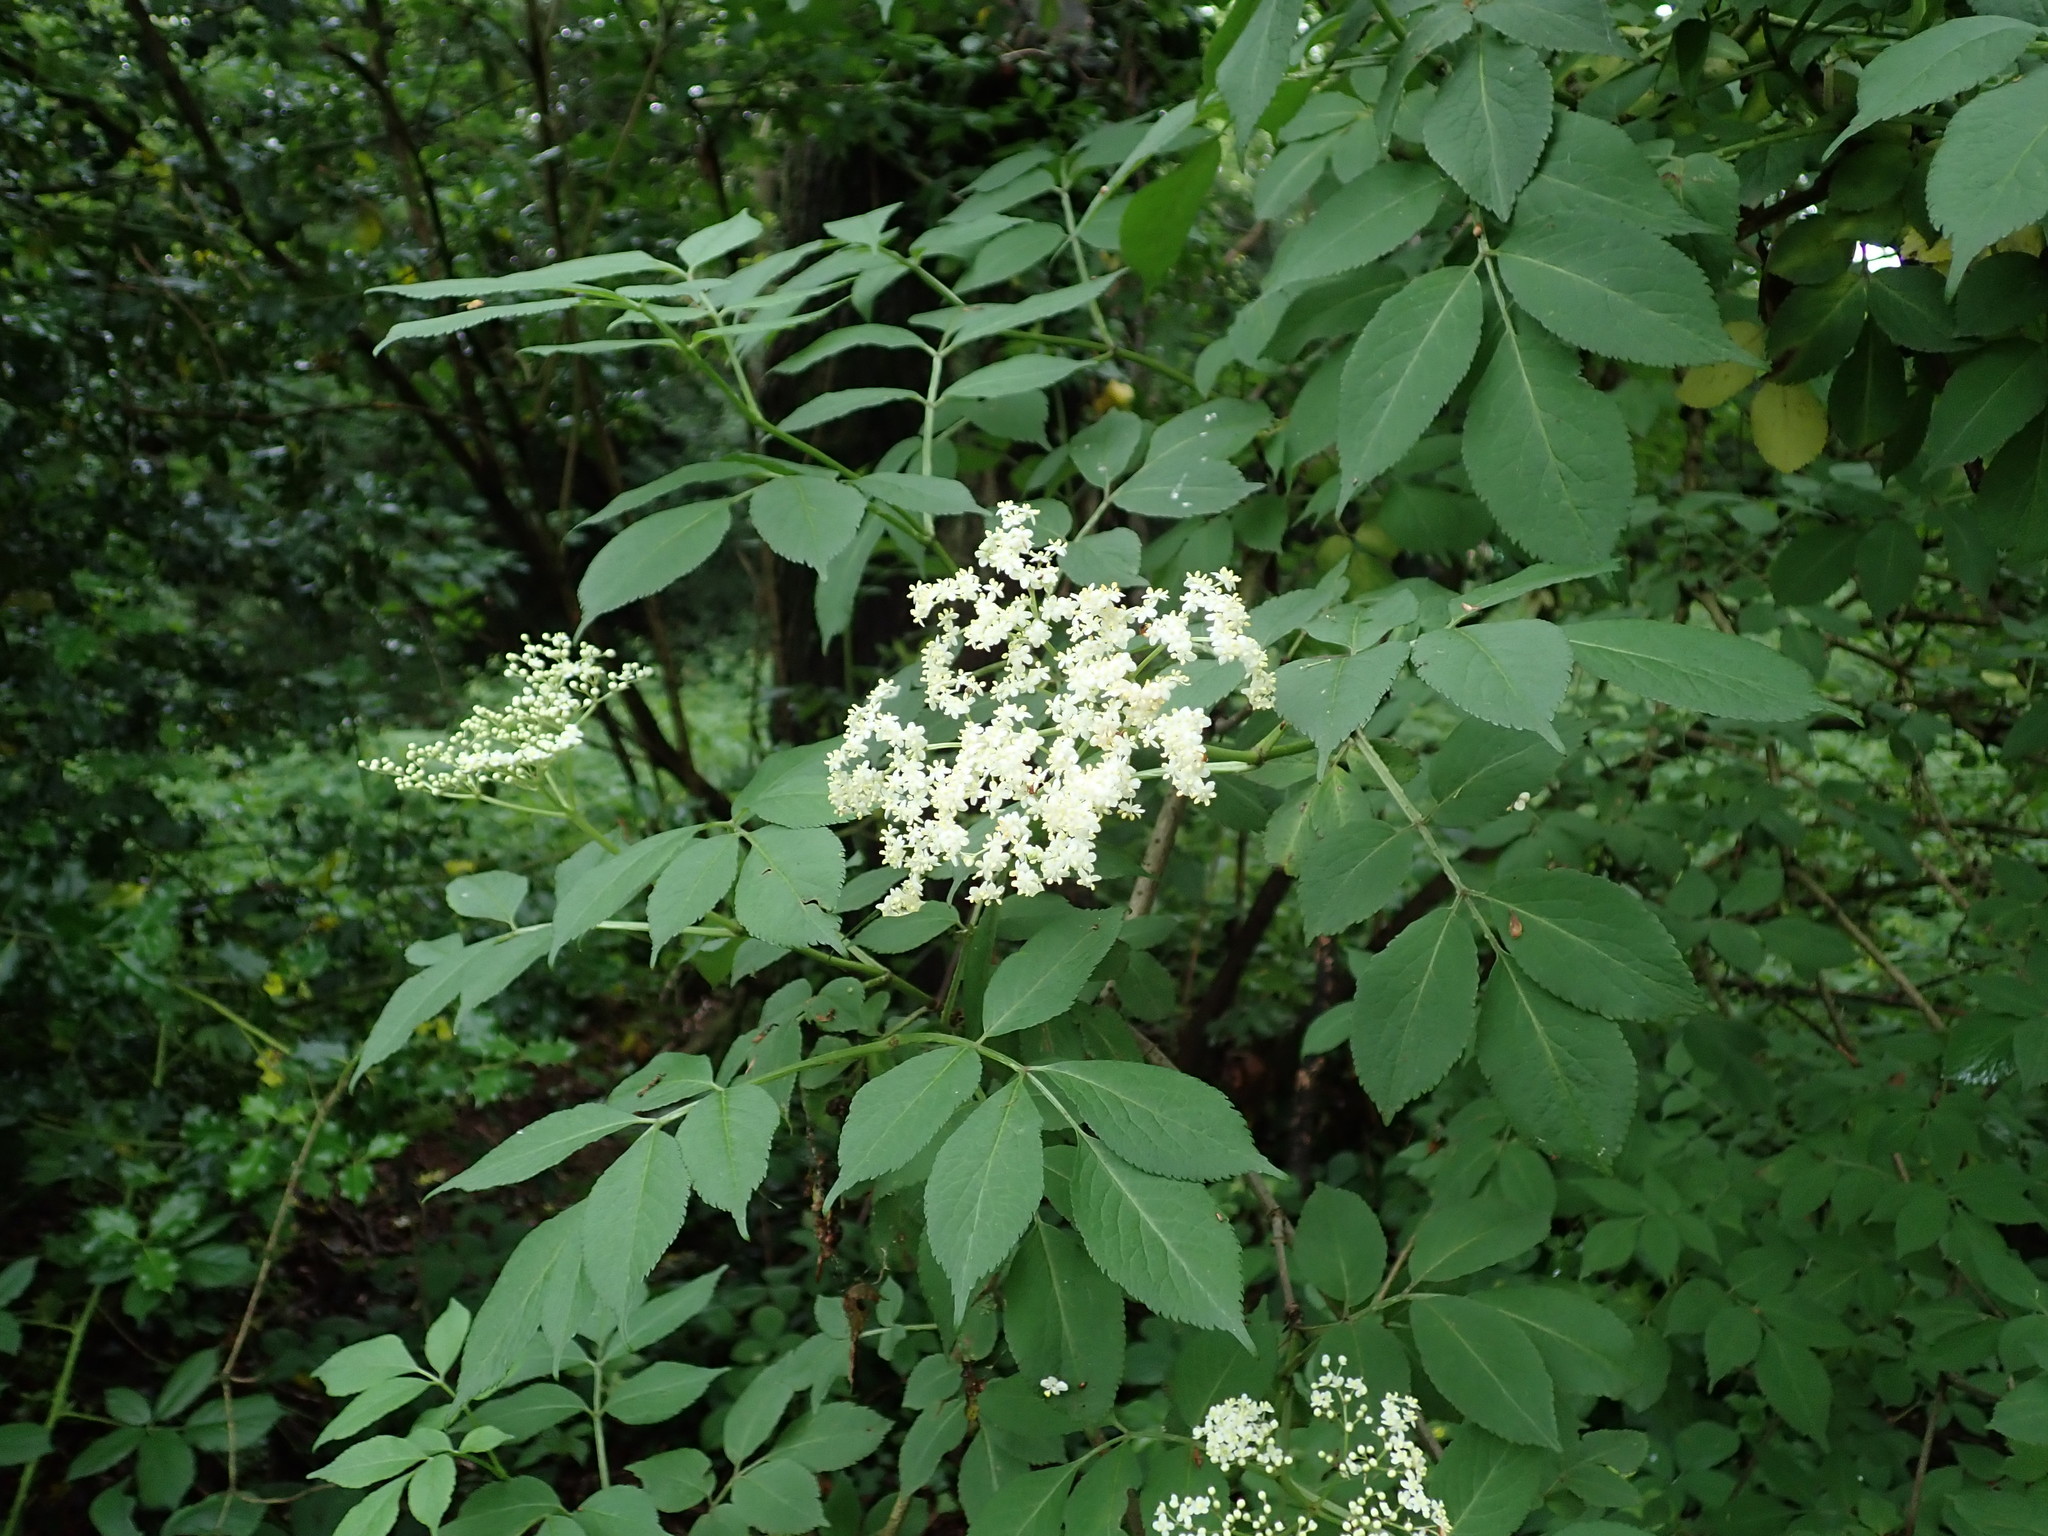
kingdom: Plantae
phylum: Tracheophyta
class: Magnoliopsida
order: Dipsacales
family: Viburnaceae
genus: Sambucus
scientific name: Sambucus nigra
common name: Elder
